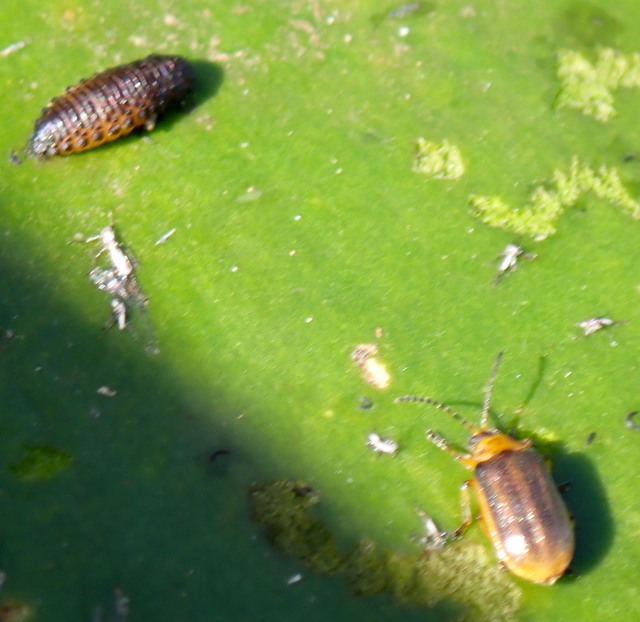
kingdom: Animalia
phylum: Arthropoda
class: Insecta
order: Coleoptera
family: Chrysomelidae
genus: Galerucella
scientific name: Galerucella nymphaeae
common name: Leaf beetle
